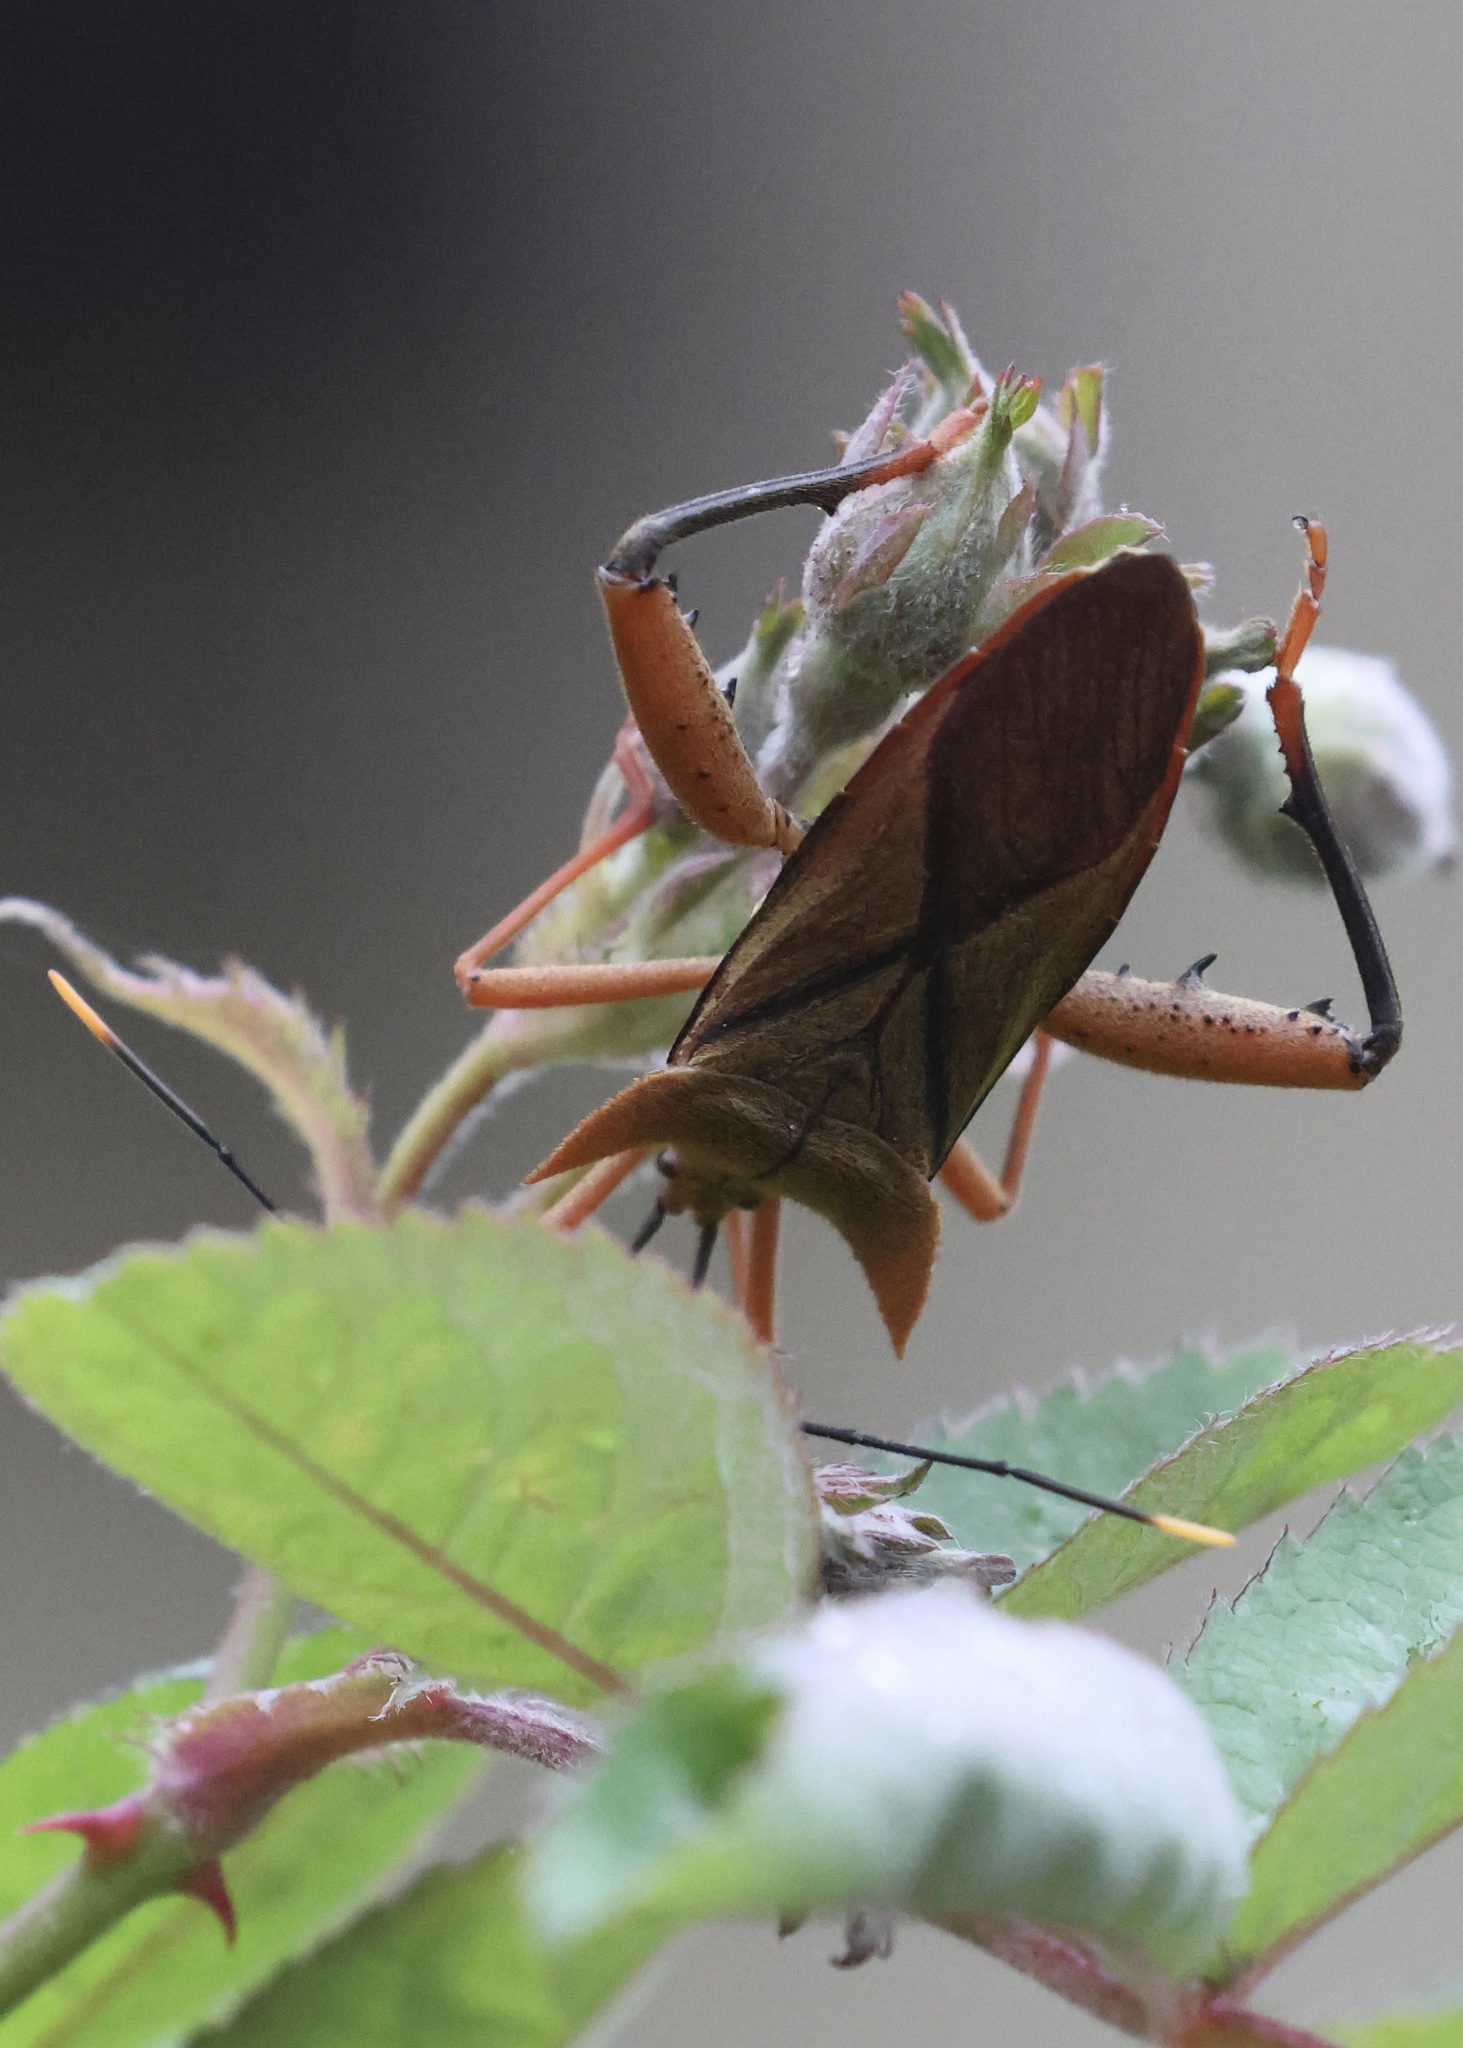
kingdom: Animalia
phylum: Arthropoda
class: Insecta
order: Hemiptera
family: Coreidae
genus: Ochrochira
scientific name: Ochrochira nigrovittata
